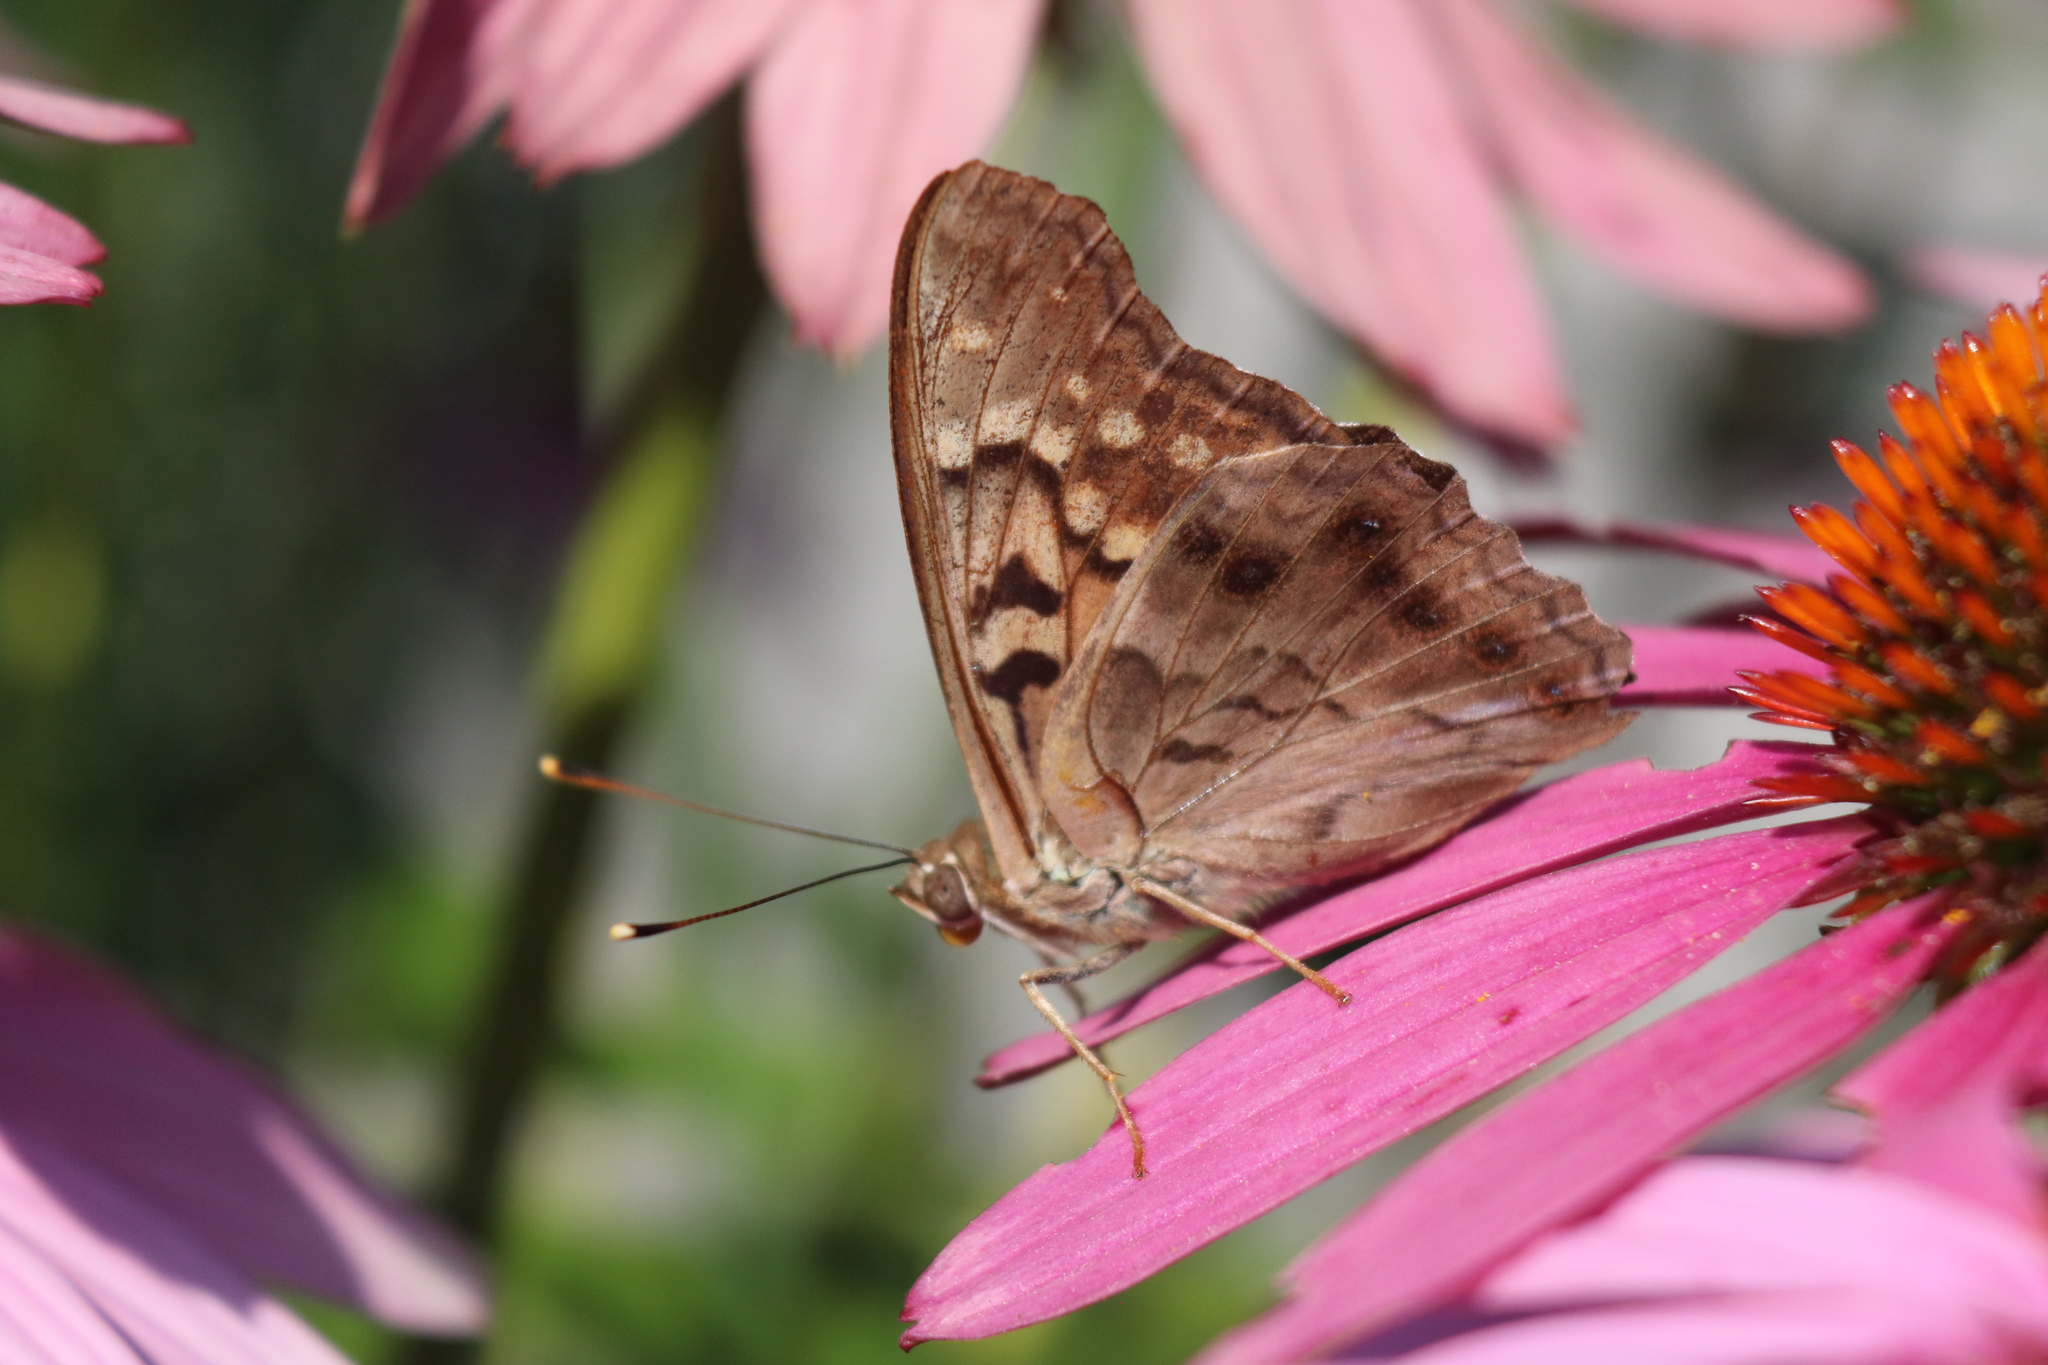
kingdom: Animalia
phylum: Arthropoda
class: Insecta
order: Lepidoptera
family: Nymphalidae
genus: Asterocampa
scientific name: Asterocampa clyton
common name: Tawny emperor
